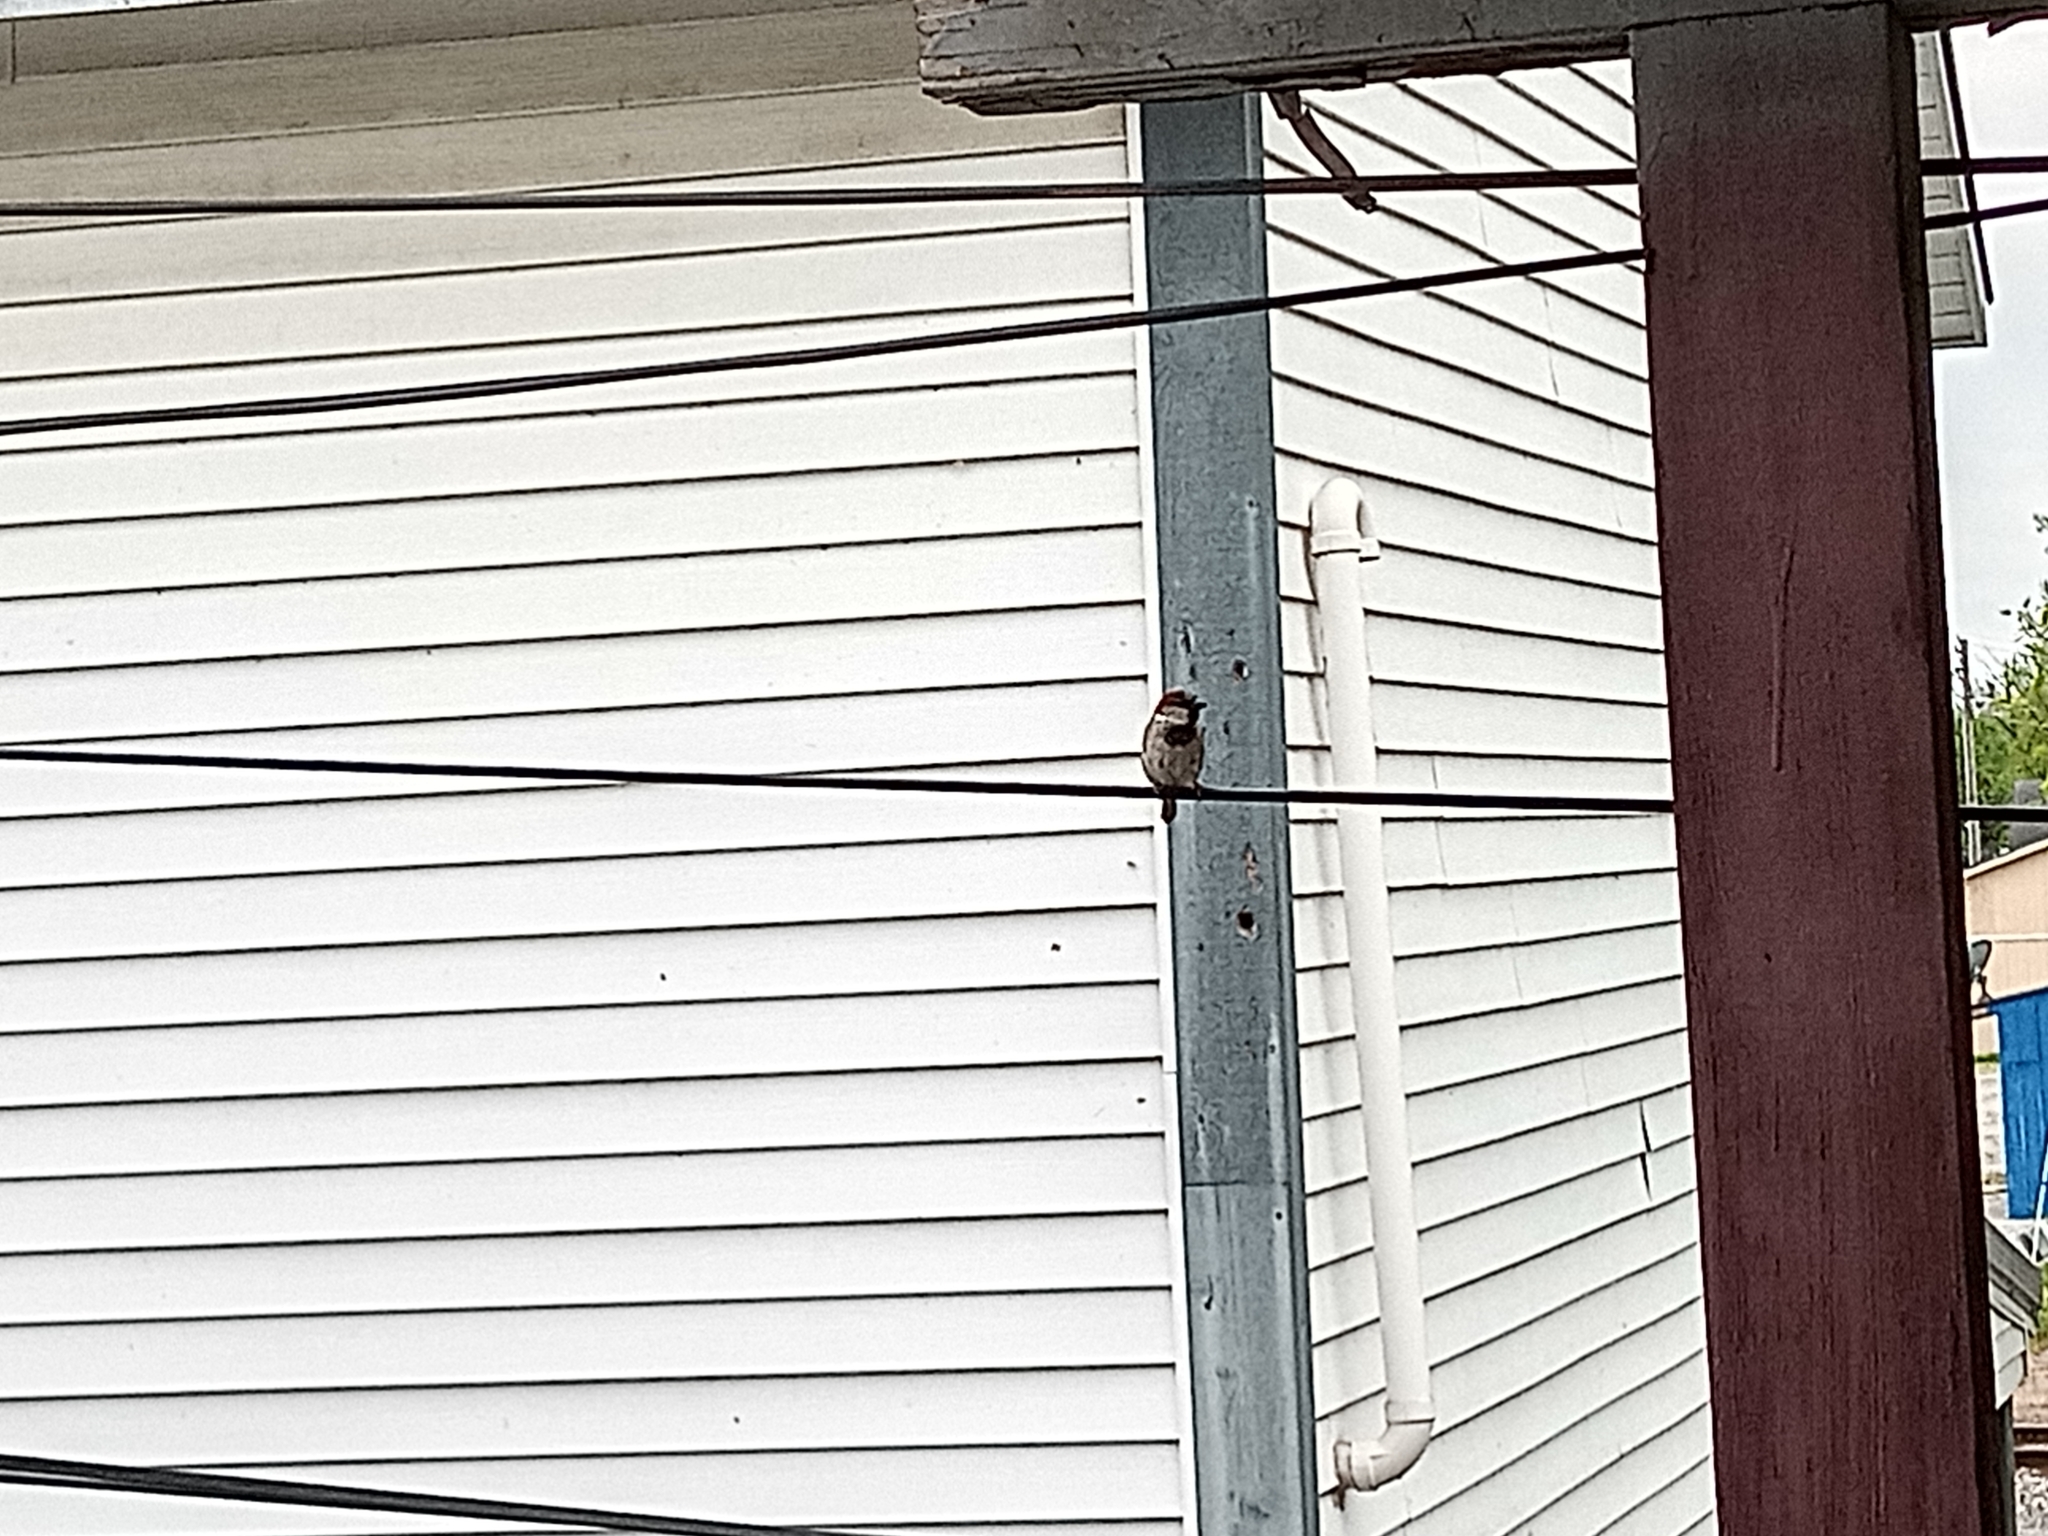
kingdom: Animalia
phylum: Chordata
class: Aves
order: Passeriformes
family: Passeridae
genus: Passer
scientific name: Passer domesticus
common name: House sparrow
